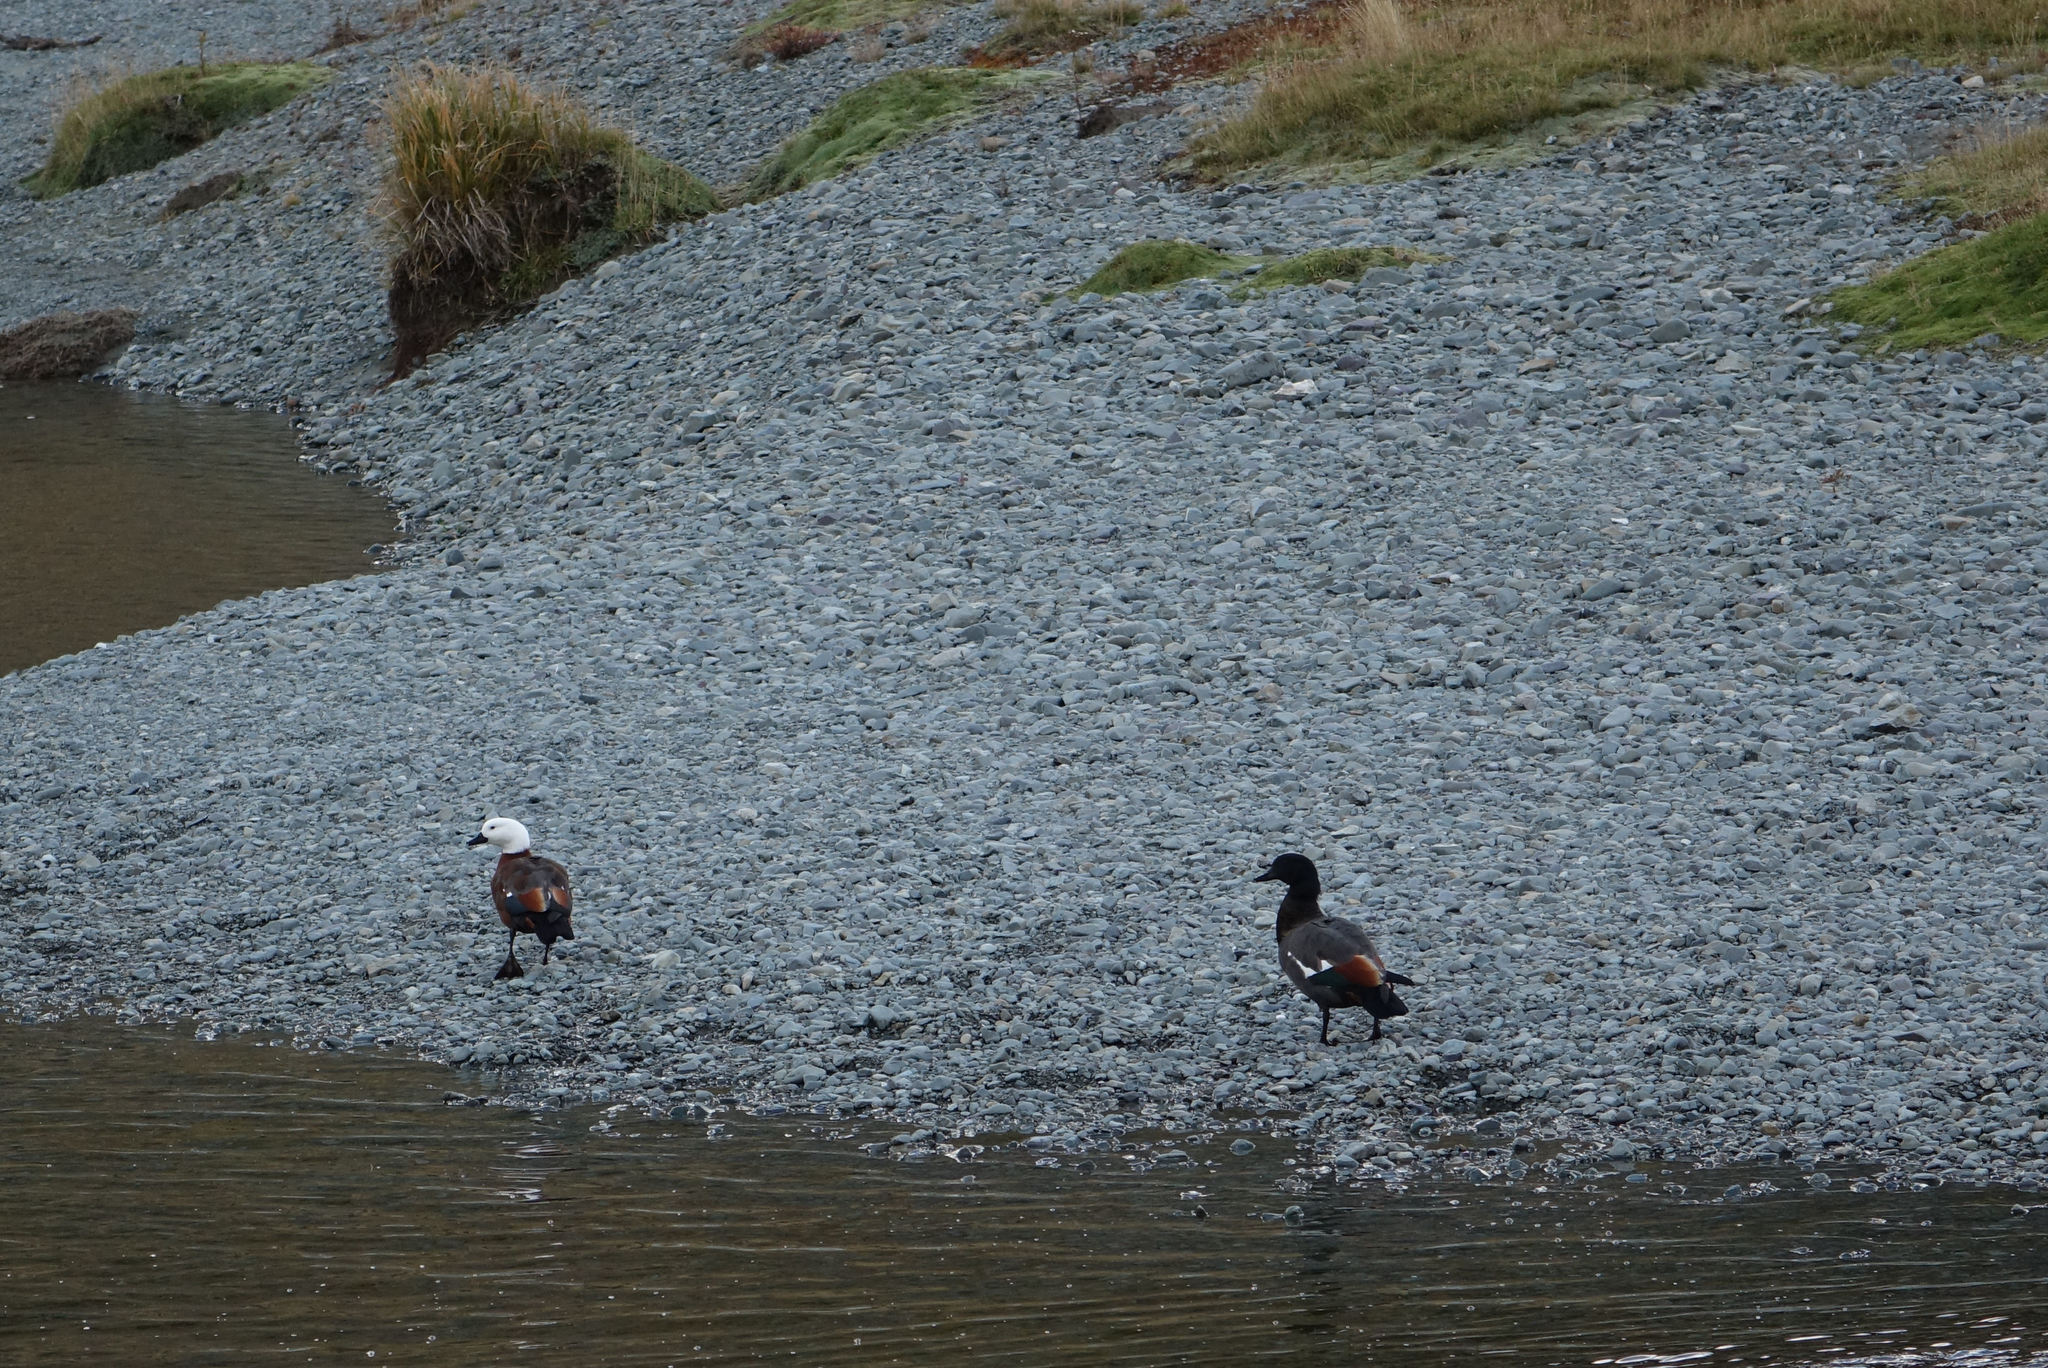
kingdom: Animalia
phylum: Chordata
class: Aves
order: Anseriformes
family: Anatidae
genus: Tadorna
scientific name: Tadorna variegata
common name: Paradise shelduck
